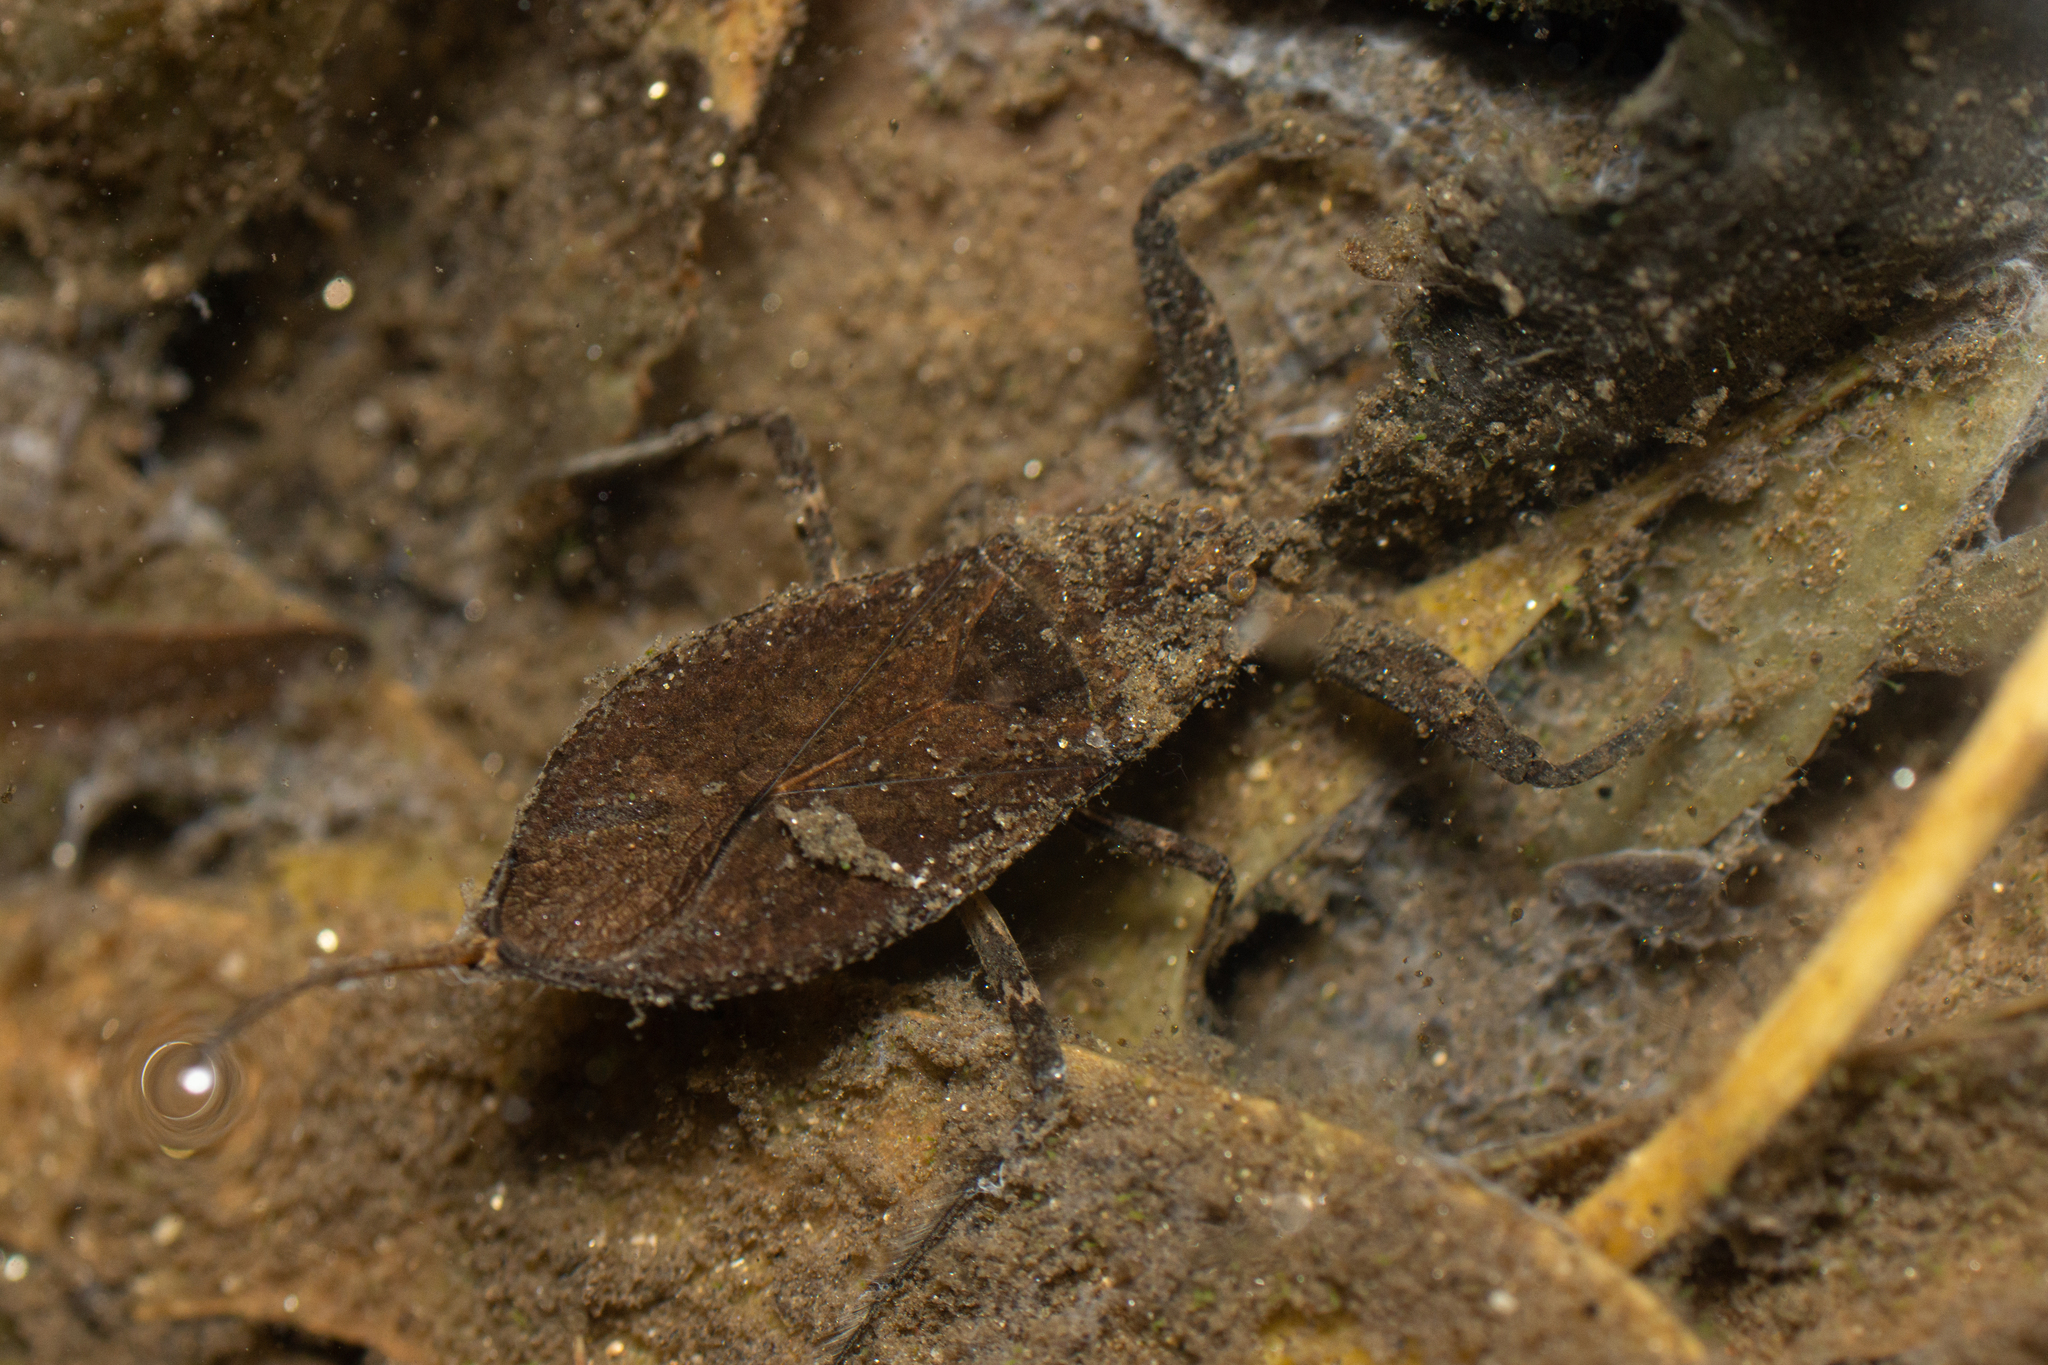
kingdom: Animalia
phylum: Arthropoda
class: Insecta
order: Hemiptera
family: Nepidae
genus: Nepa
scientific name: Nepa cinerea
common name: Water scorpion
